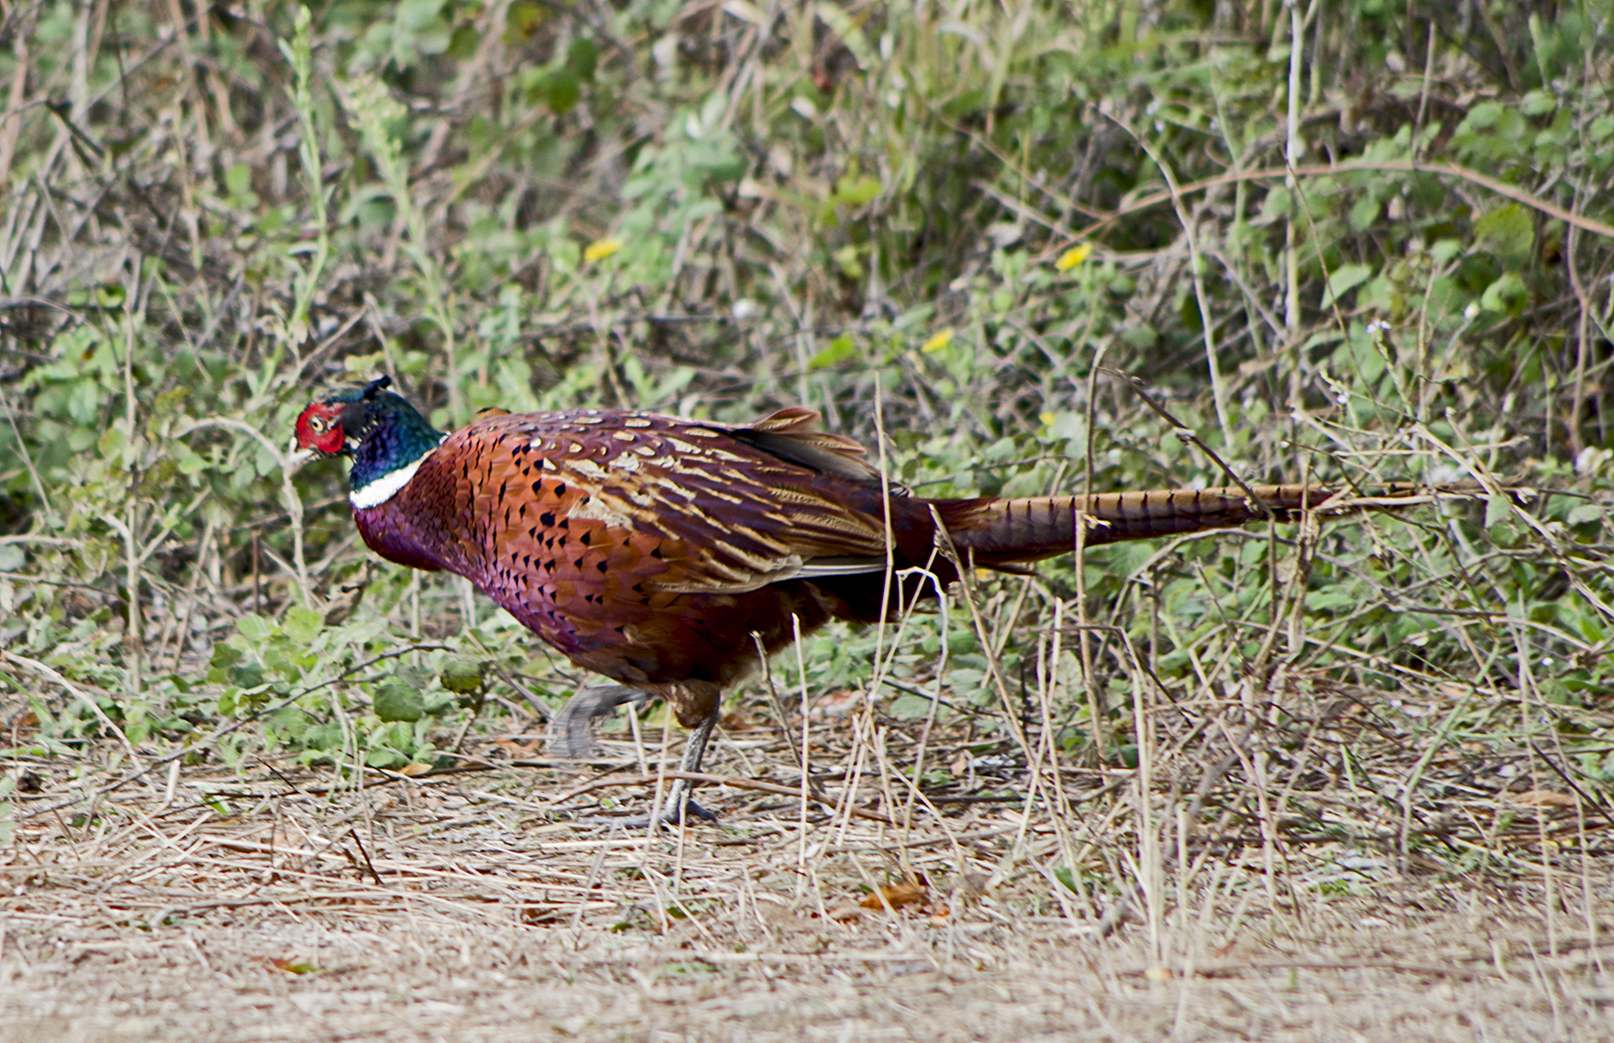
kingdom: Animalia
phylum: Chordata
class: Aves
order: Galliformes
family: Phasianidae
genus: Phasianus
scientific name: Phasianus colchicus
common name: Common pheasant
